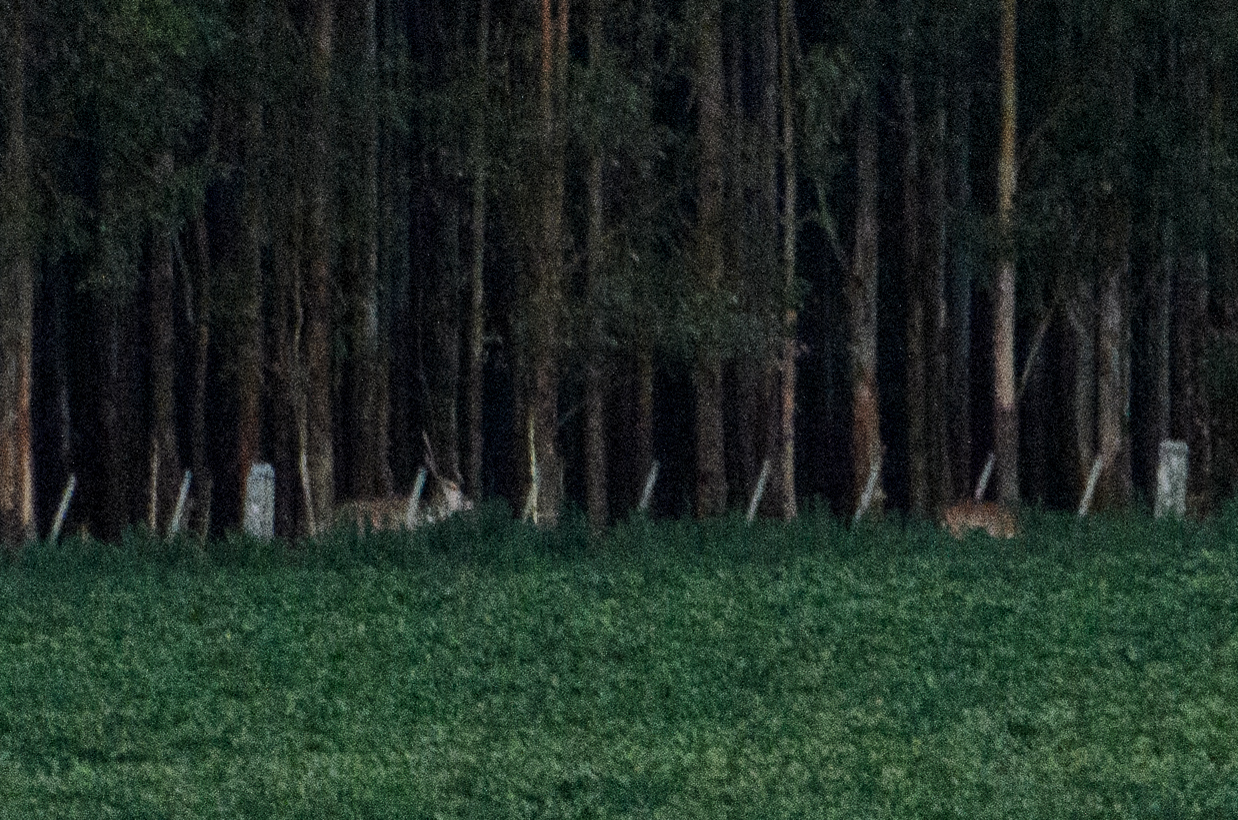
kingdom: Animalia
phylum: Chordata
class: Mammalia
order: Artiodactyla
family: Cervidae
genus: Axis
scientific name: Axis axis
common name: Chital
